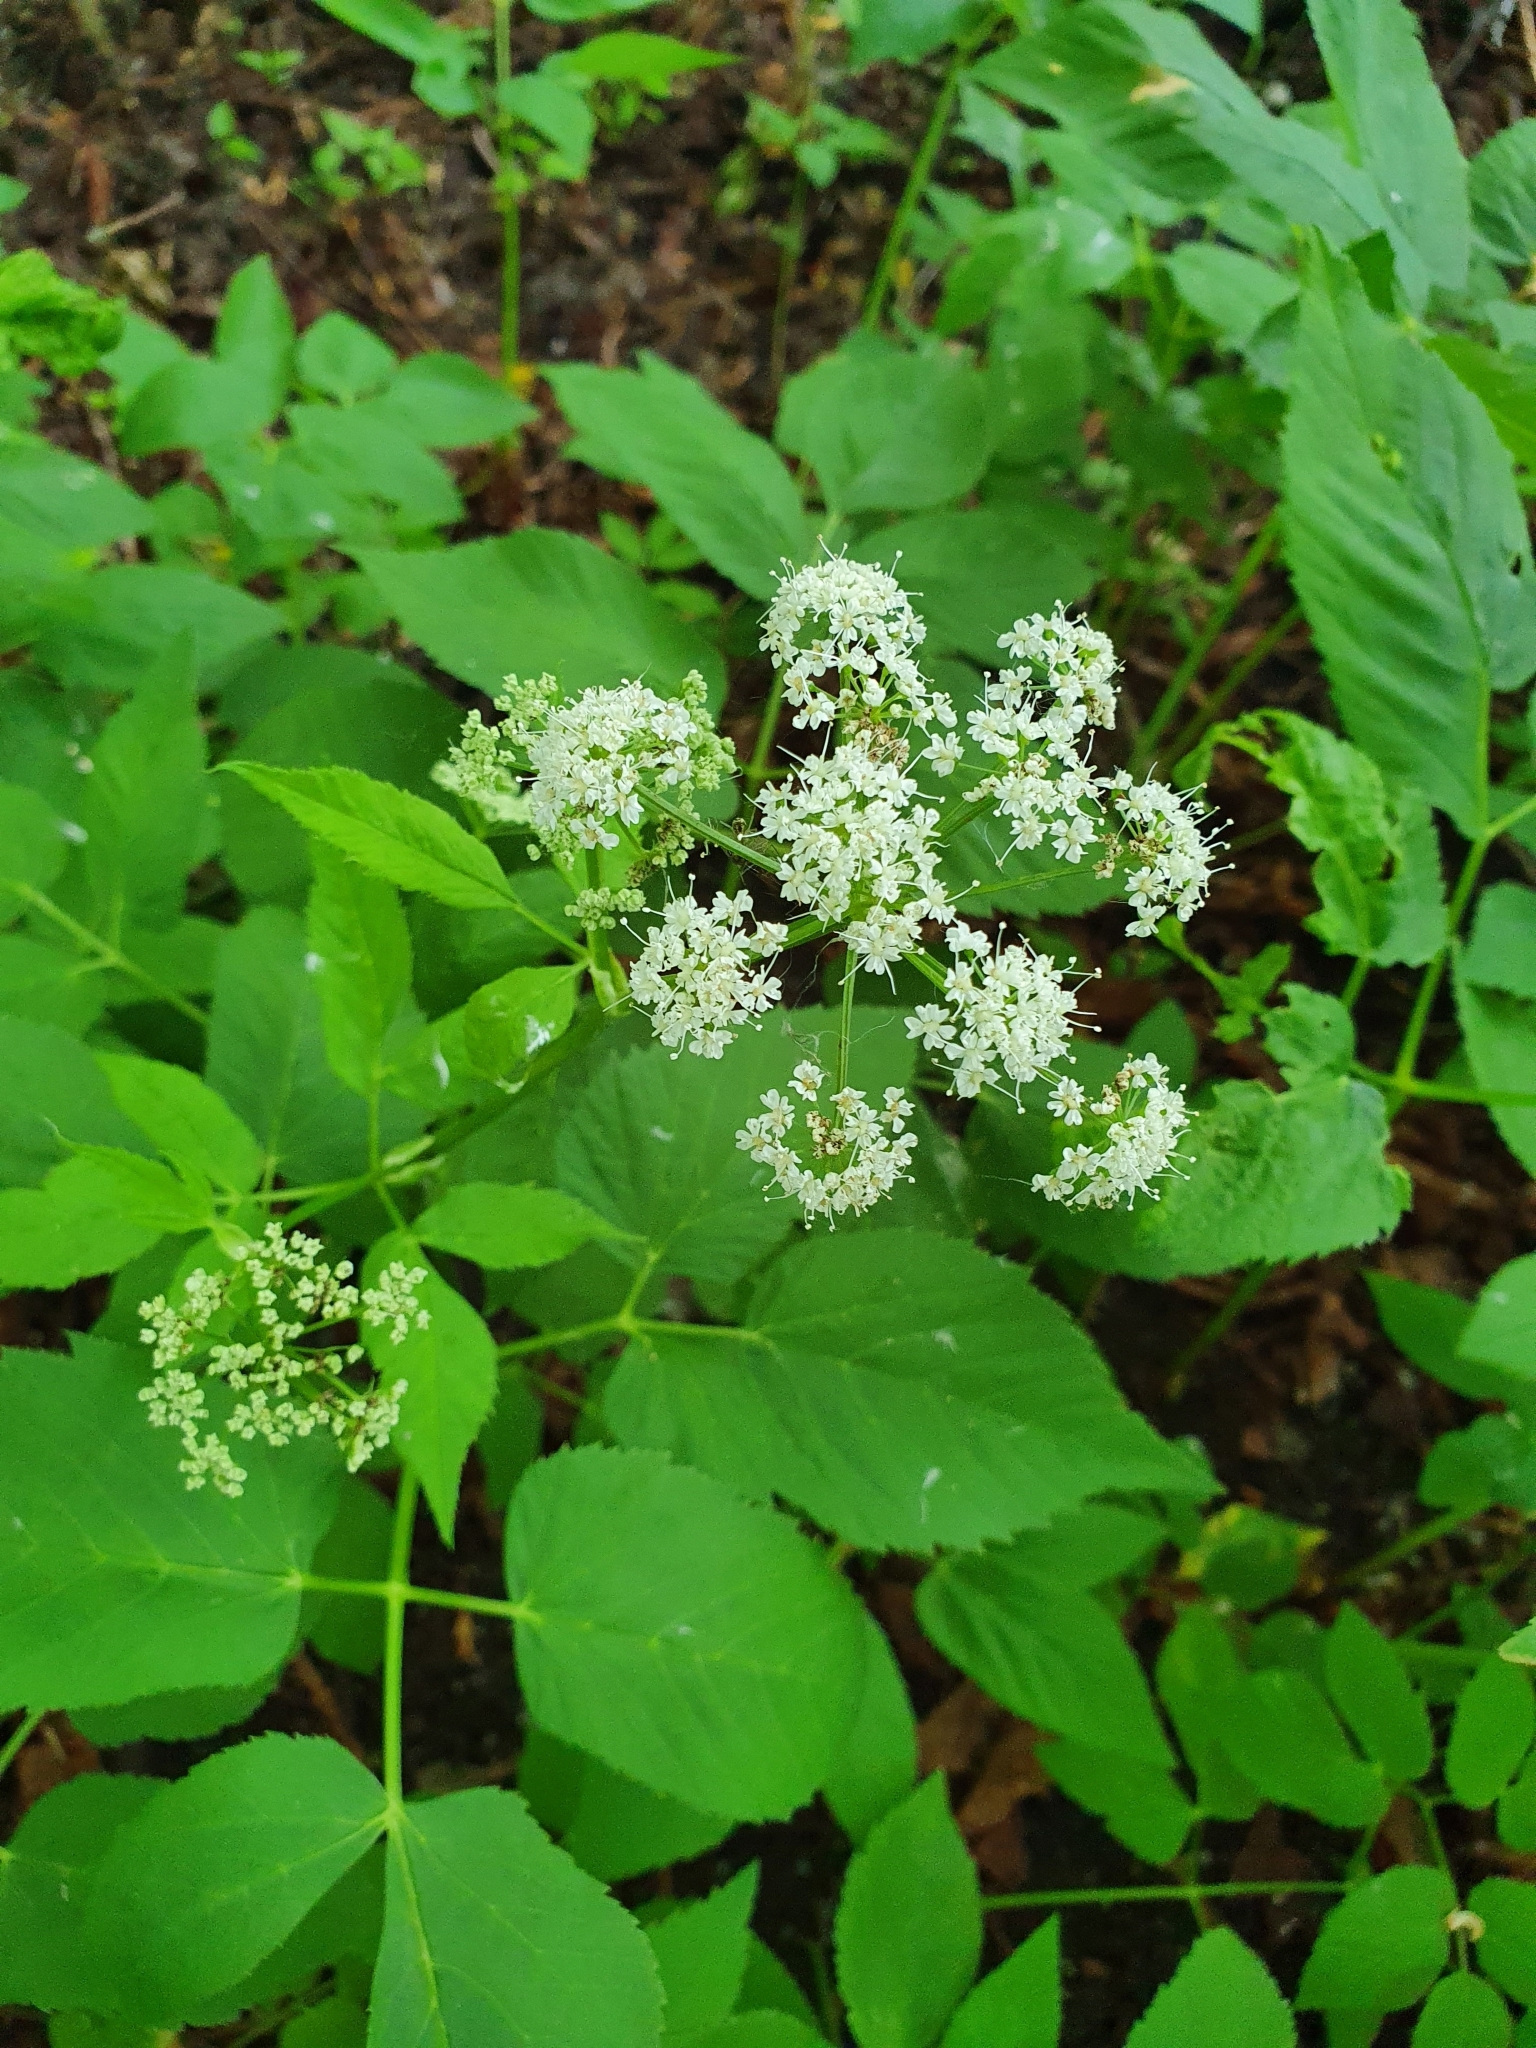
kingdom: Plantae
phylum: Tracheophyta
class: Magnoliopsida
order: Apiales
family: Apiaceae
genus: Aegopodium
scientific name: Aegopodium podagraria
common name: Ground-elder
